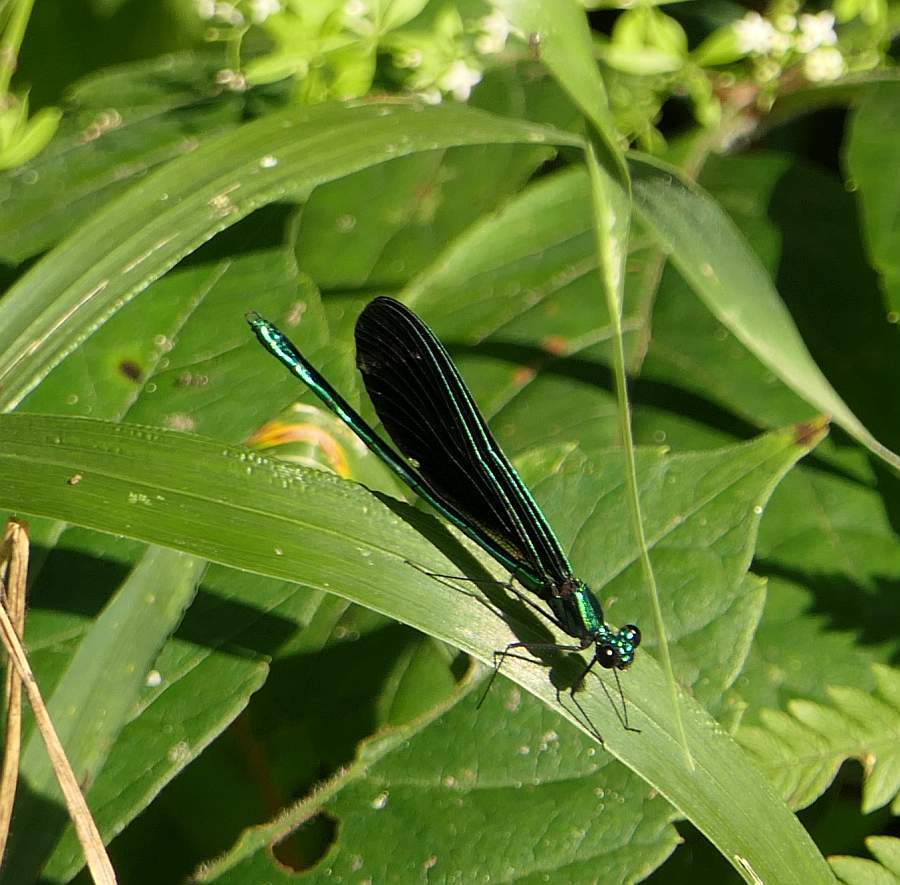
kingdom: Animalia
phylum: Arthropoda
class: Insecta
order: Odonata
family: Calopterygidae
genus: Calopteryx
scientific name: Calopteryx maculata
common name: Ebony jewelwing
